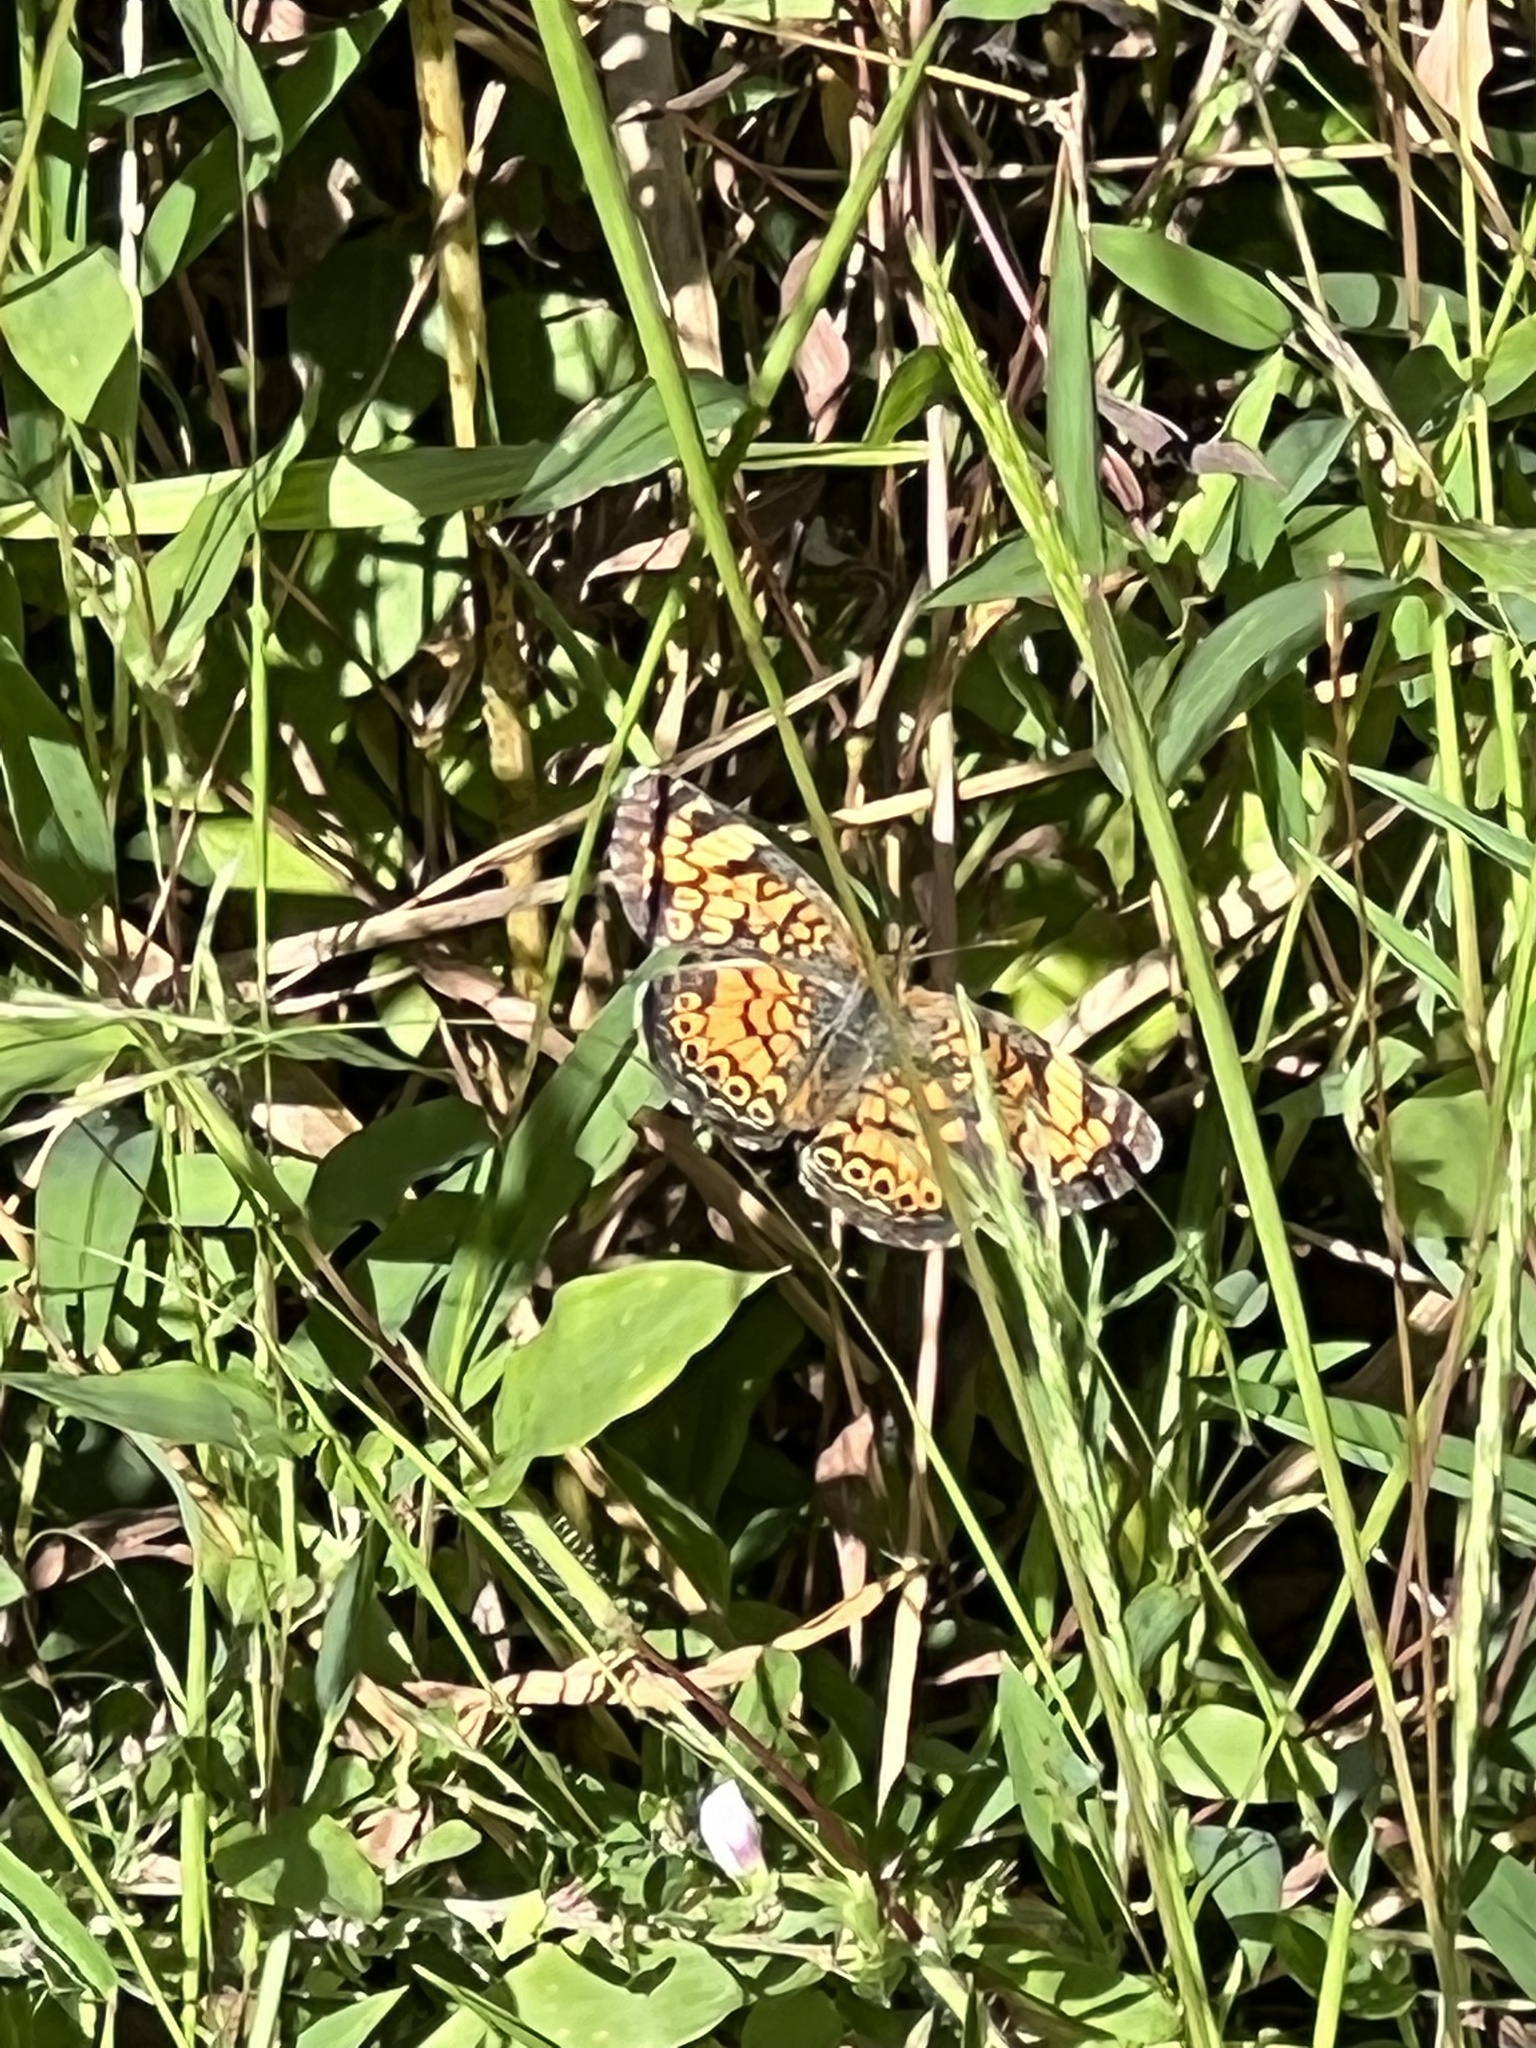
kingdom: Animalia
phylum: Arthropoda
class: Insecta
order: Lepidoptera
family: Nymphalidae
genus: Phyciodes
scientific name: Phyciodes tharos
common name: Pearl crescent
